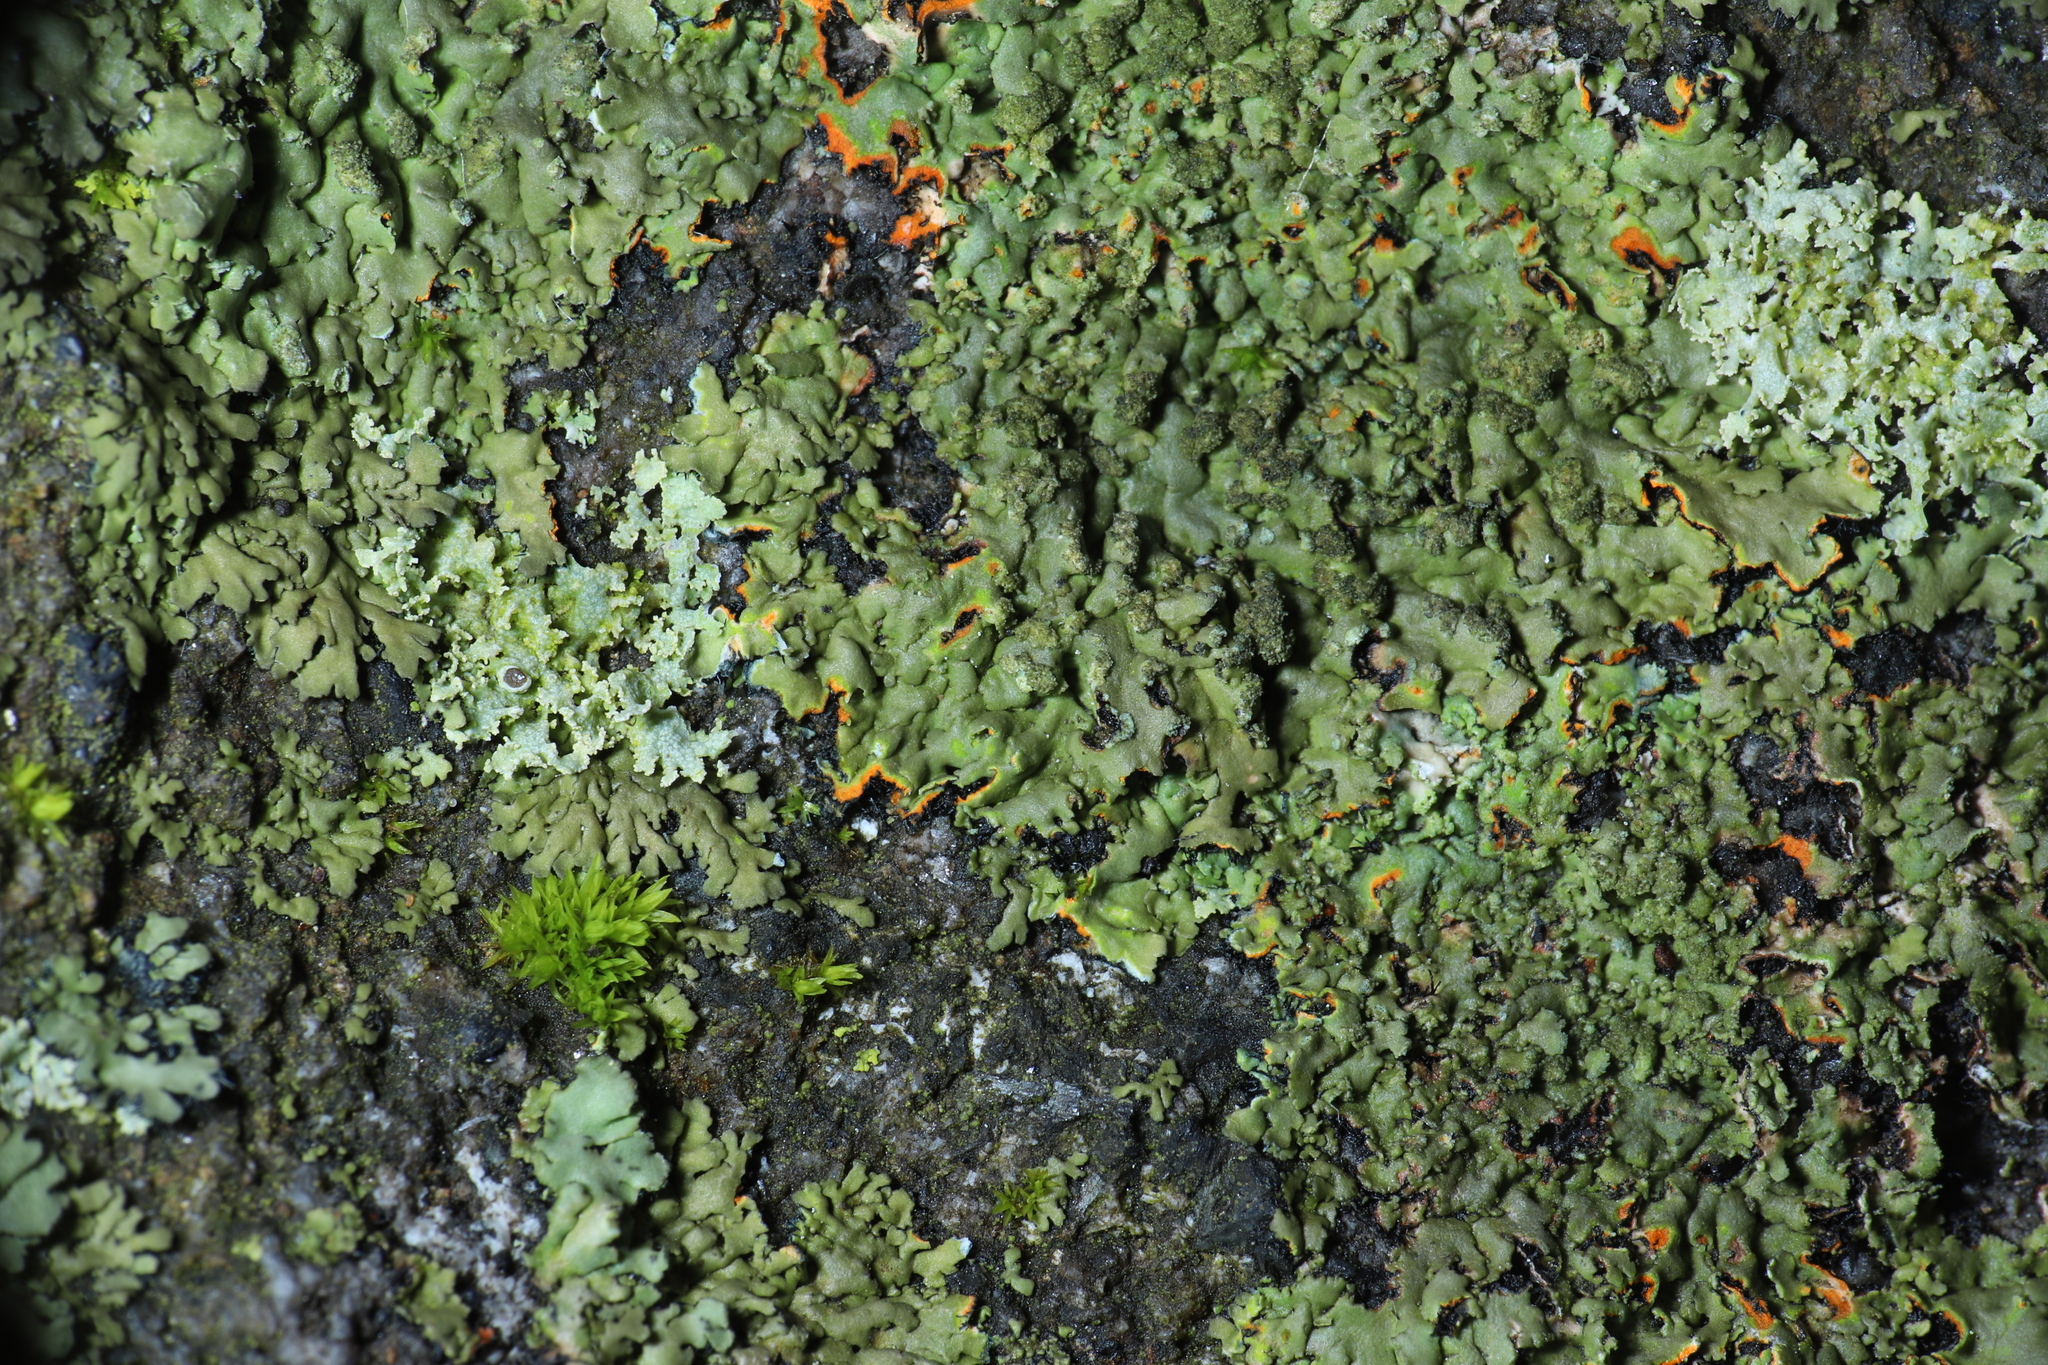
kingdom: Fungi
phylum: Ascomycota
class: Lecanoromycetes
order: Caliciales
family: Physciaceae
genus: Phaeophyscia
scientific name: Phaeophyscia rubropulchra
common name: Orange-cored shadow lichen
